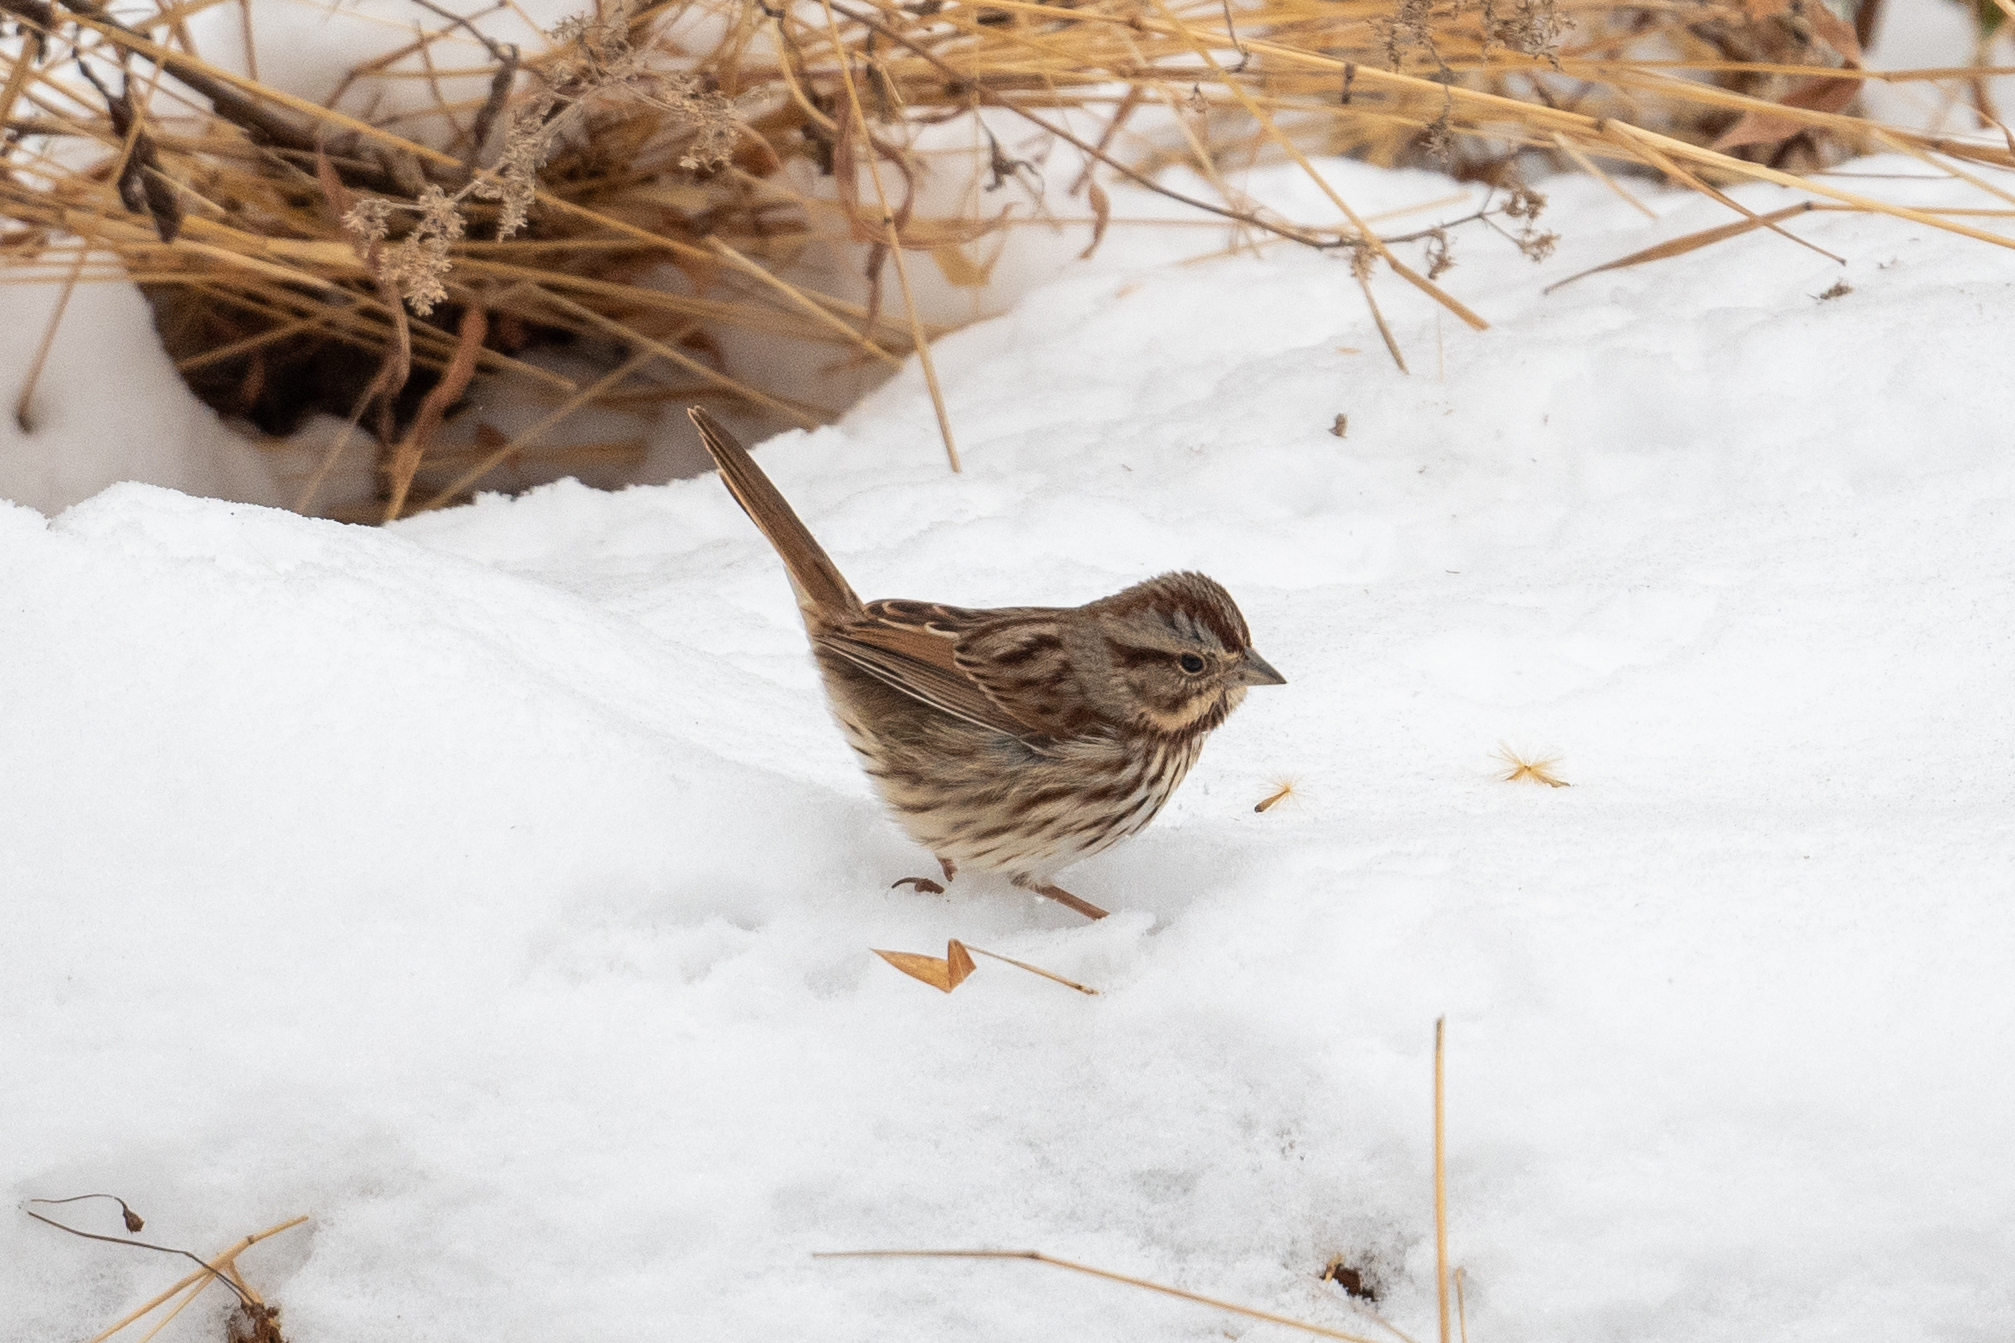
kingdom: Animalia
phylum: Chordata
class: Aves
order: Passeriformes
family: Passerellidae
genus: Melospiza
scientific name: Melospiza melodia
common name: Song sparrow
